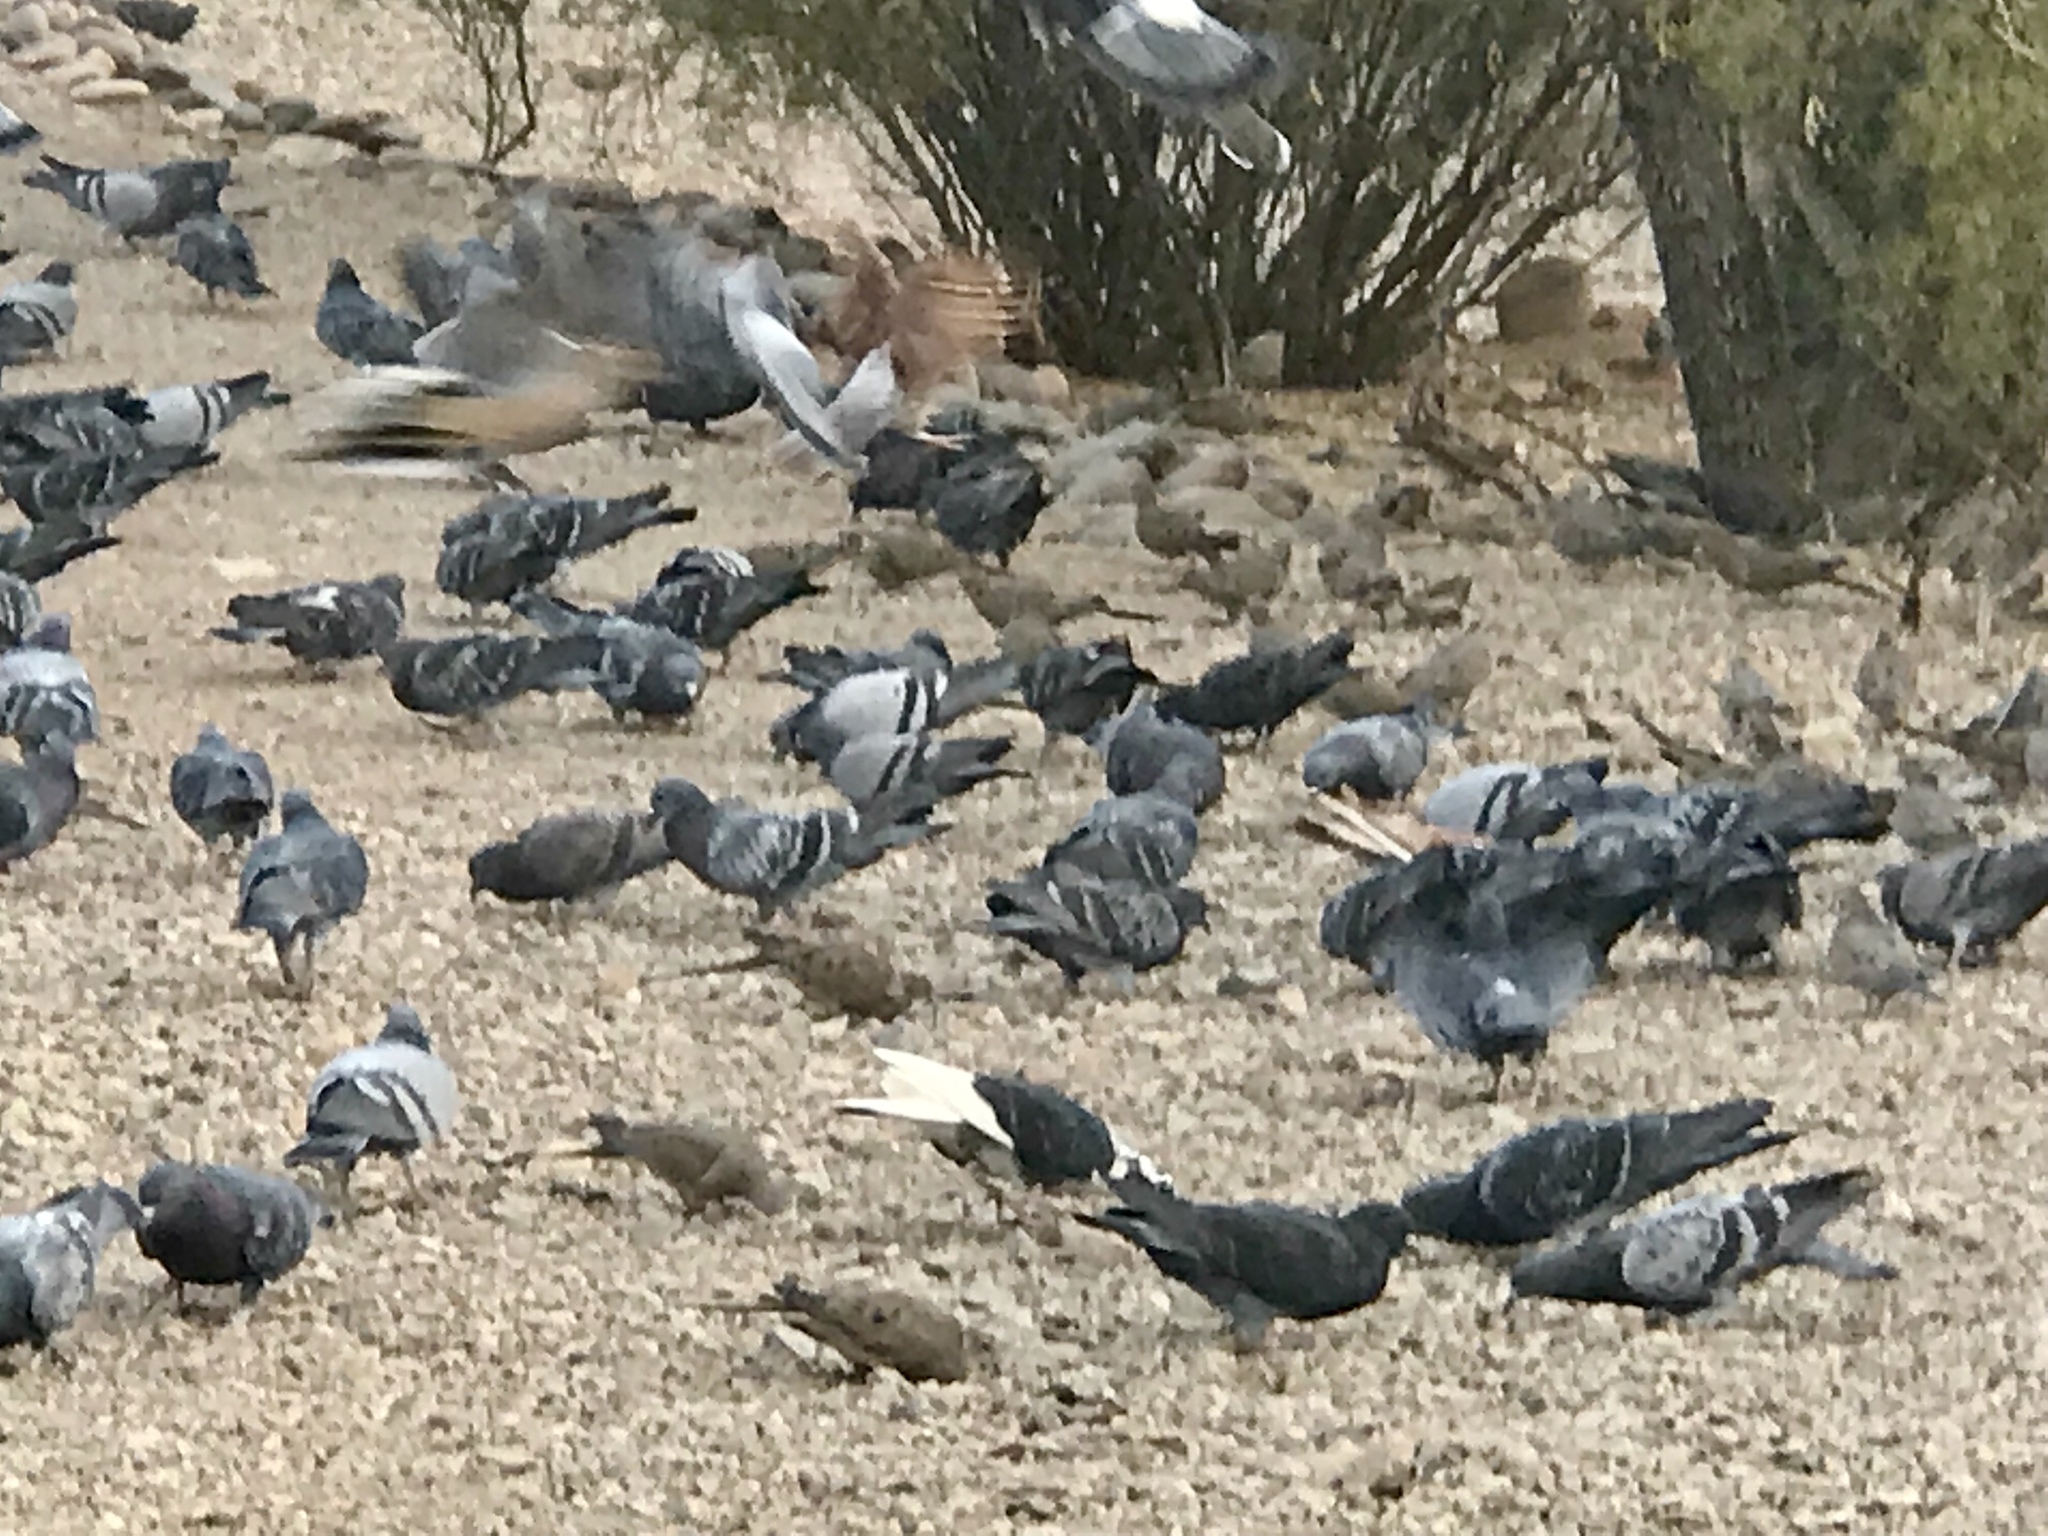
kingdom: Animalia
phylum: Chordata
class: Aves
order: Columbiformes
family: Columbidae
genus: Columba
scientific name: Columba livia
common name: Rock pigeon
